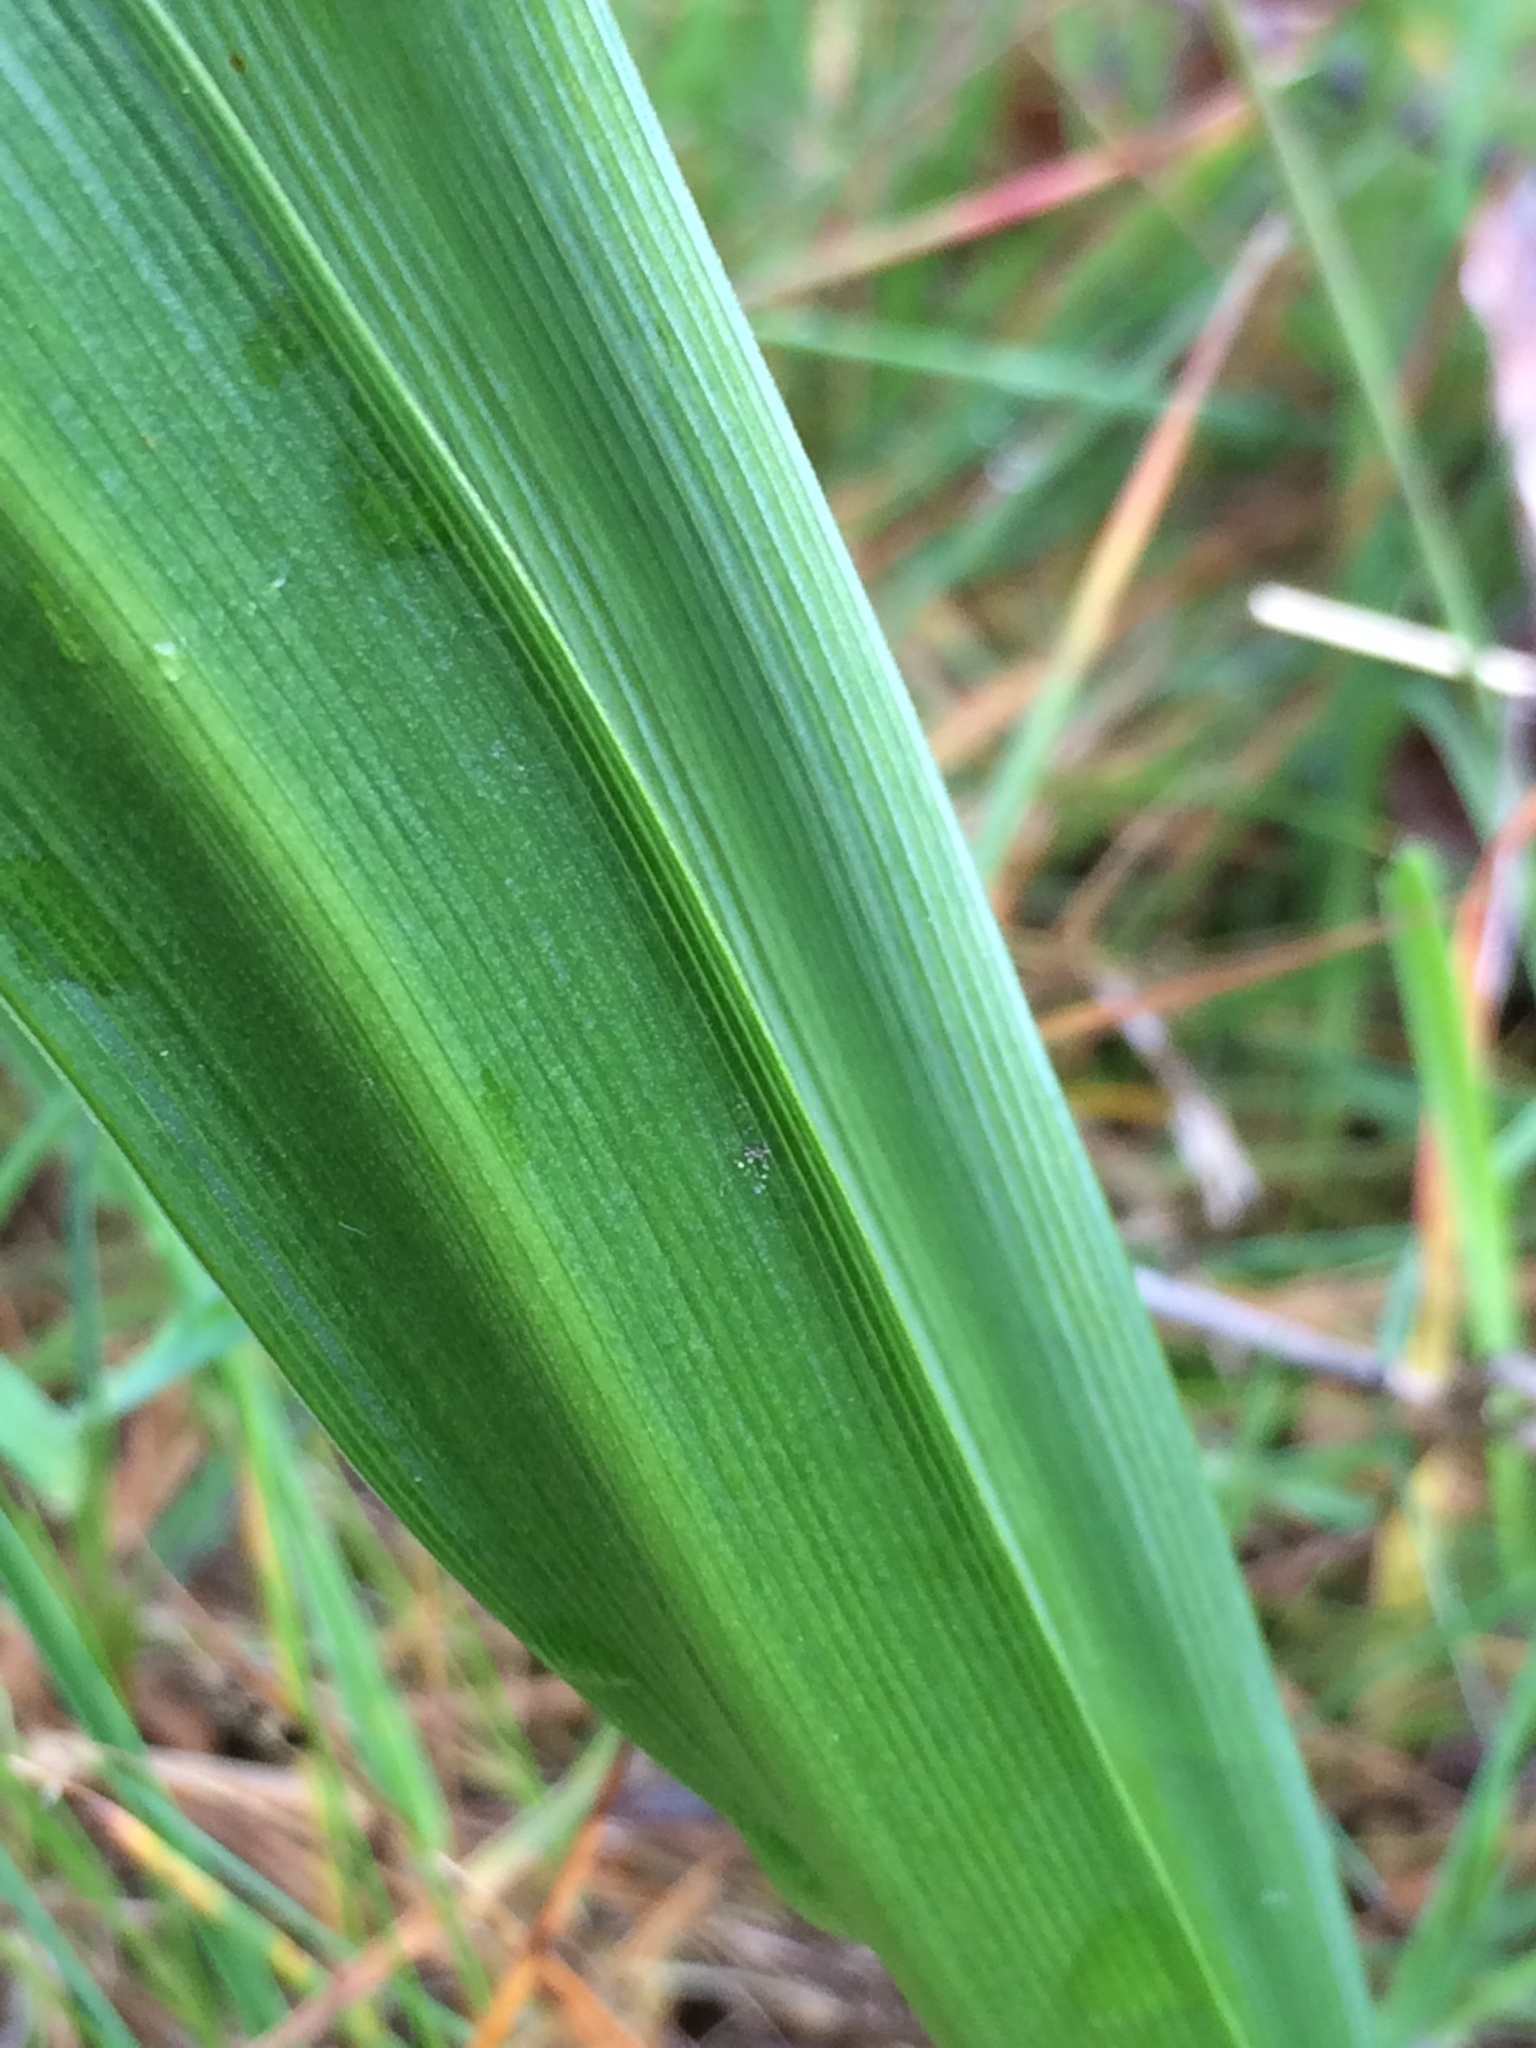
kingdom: Plantae
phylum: Tracheophyta
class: Liliopsida
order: Asparagales
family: Asparagaceae
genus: Camassia
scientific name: Camassia quamash
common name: Common camas
